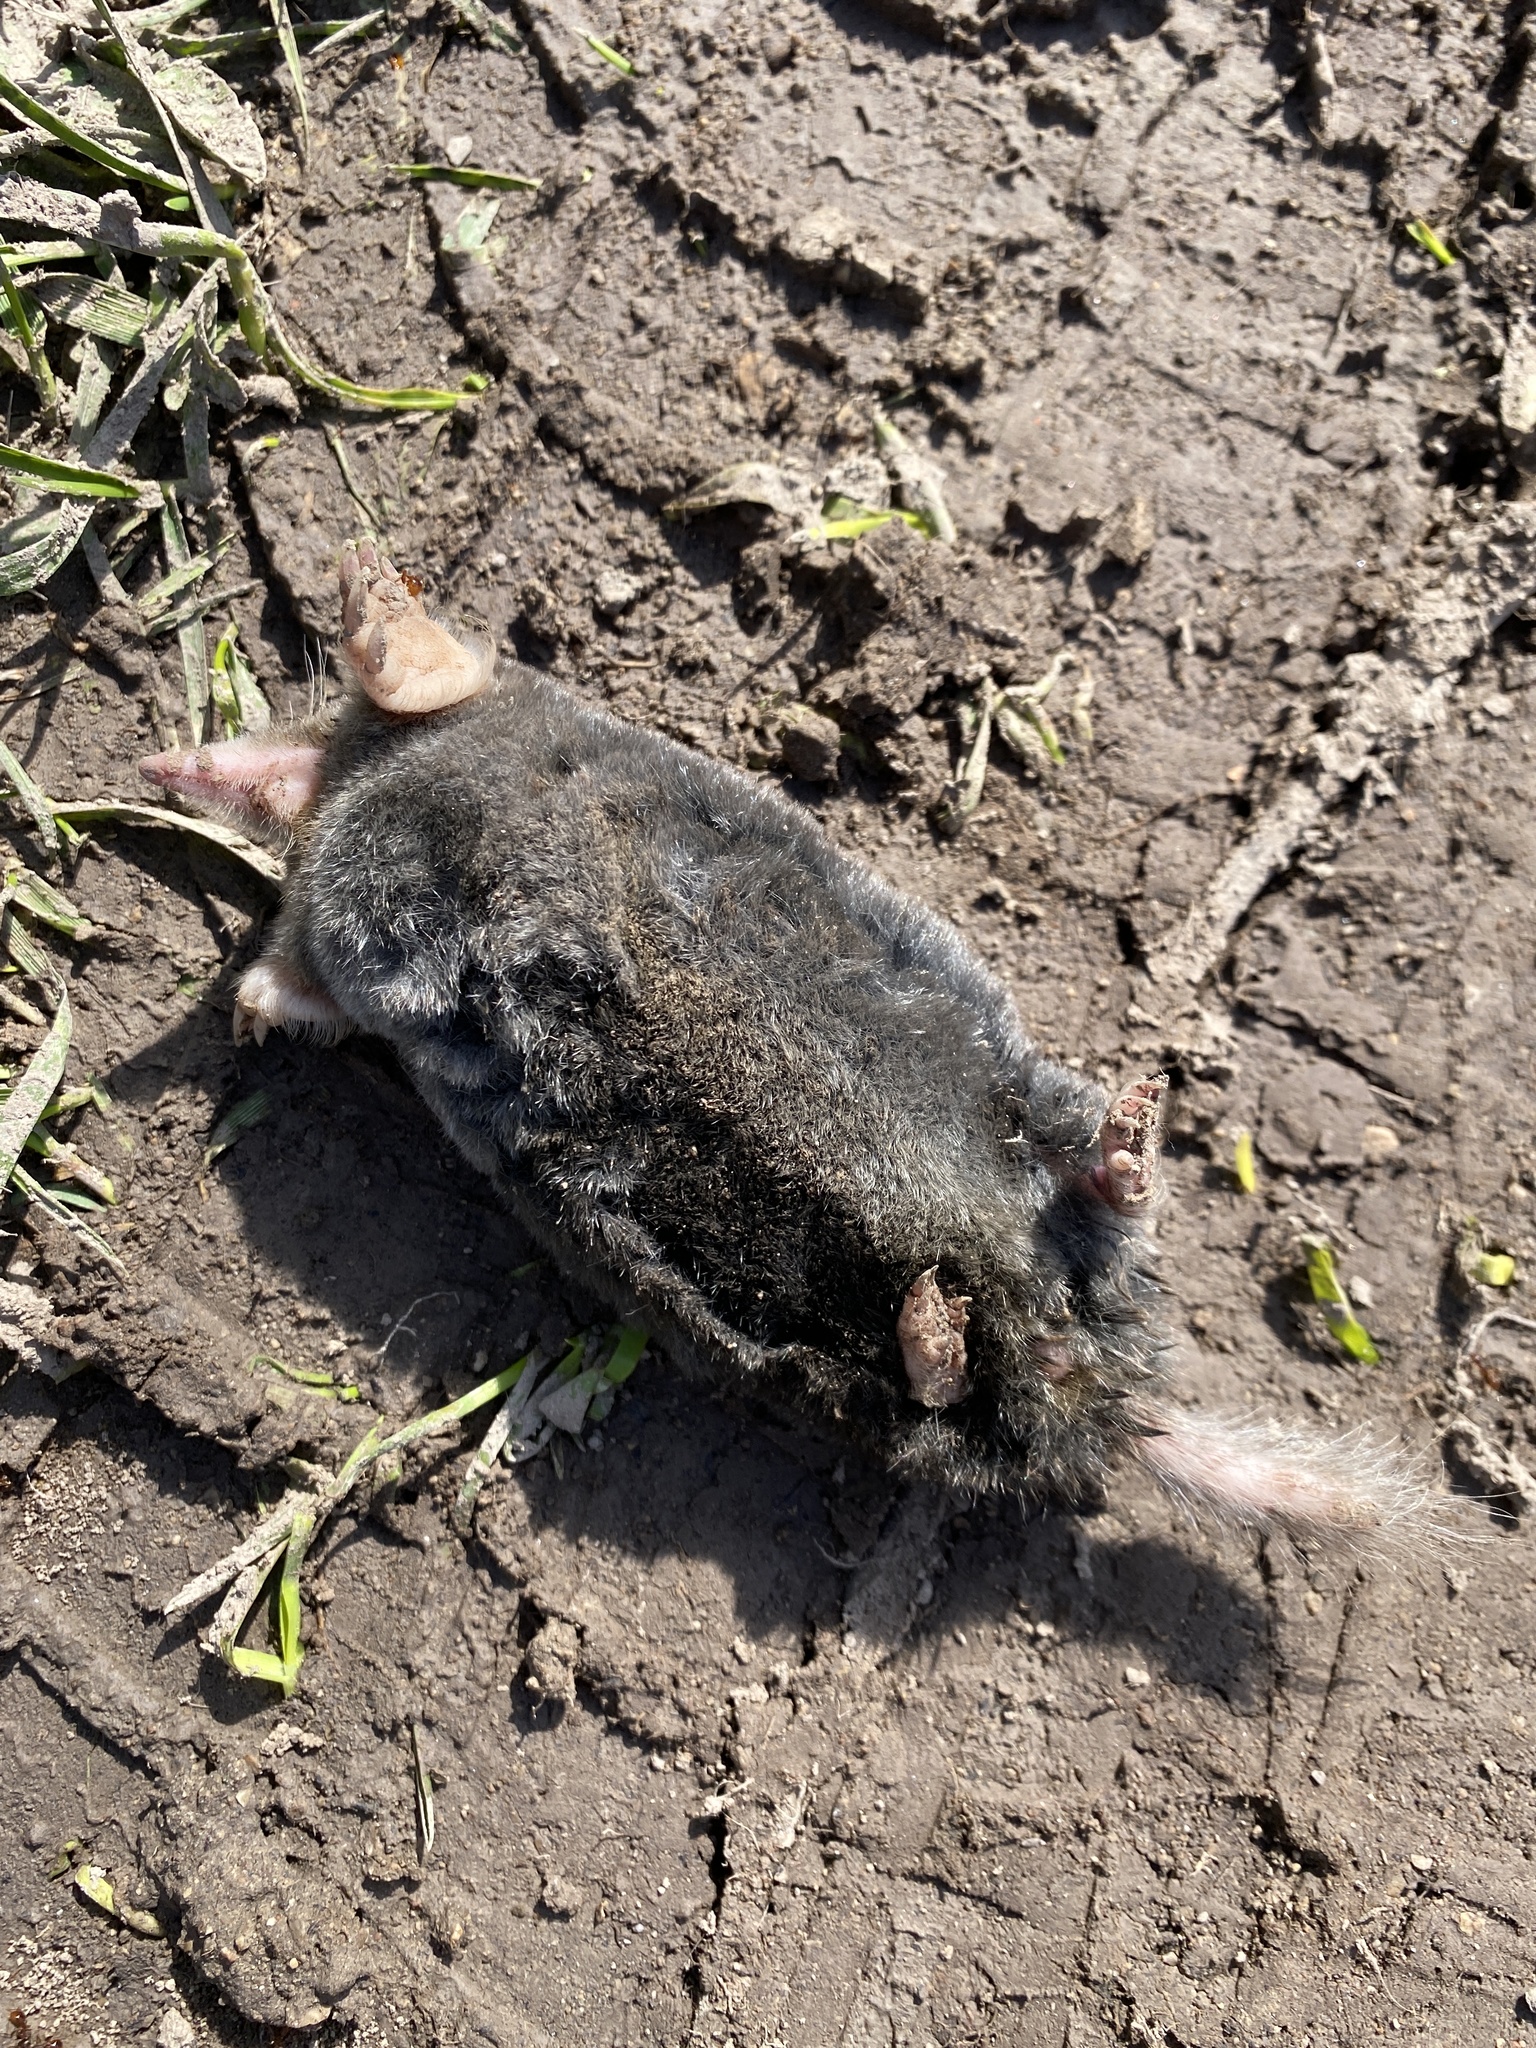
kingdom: Animalia
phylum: Chordata
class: Mammalia
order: Soricomorpha
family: Talpidae
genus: Parascalops
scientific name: Parascalops breweri
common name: Hairy-tailed mole
